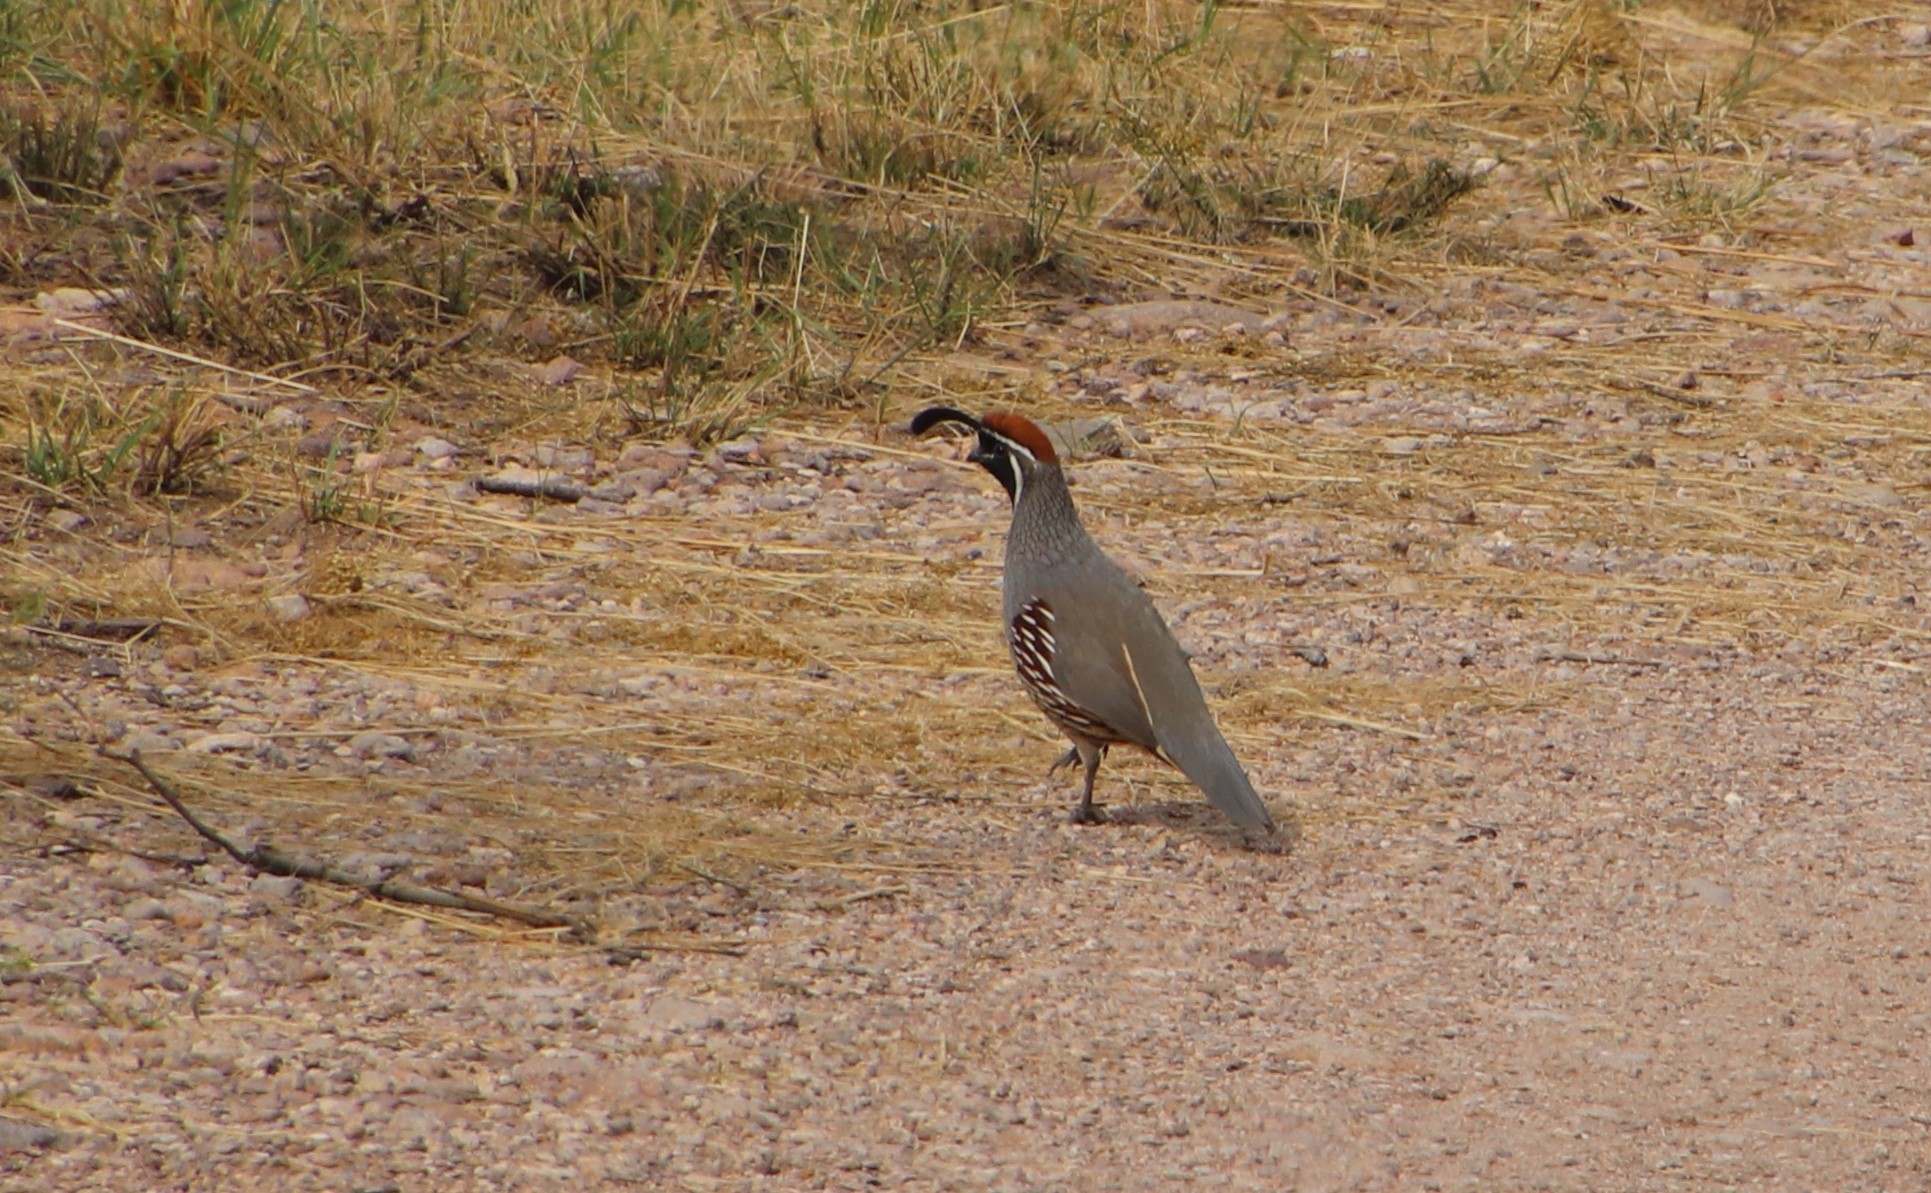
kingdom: Animalia
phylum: Chordata
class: Aves
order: Galliformes
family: Odontophoridae
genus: Callipepla
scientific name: Callipepla gambelii
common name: Gambel's quail
